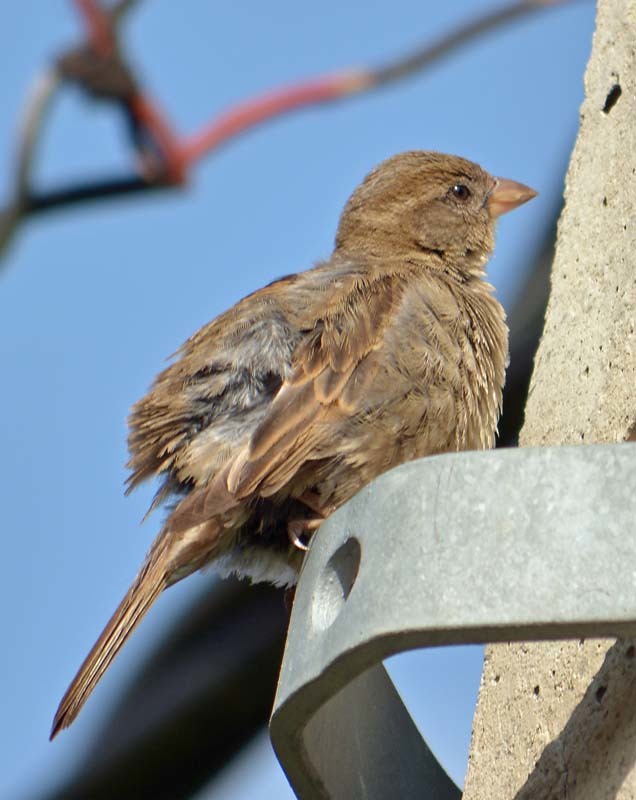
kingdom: Animalia
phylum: Chordata
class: Aves
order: Passeriformes
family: Passeridae
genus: Passer
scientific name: Passer domesticus
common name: House sparrow
